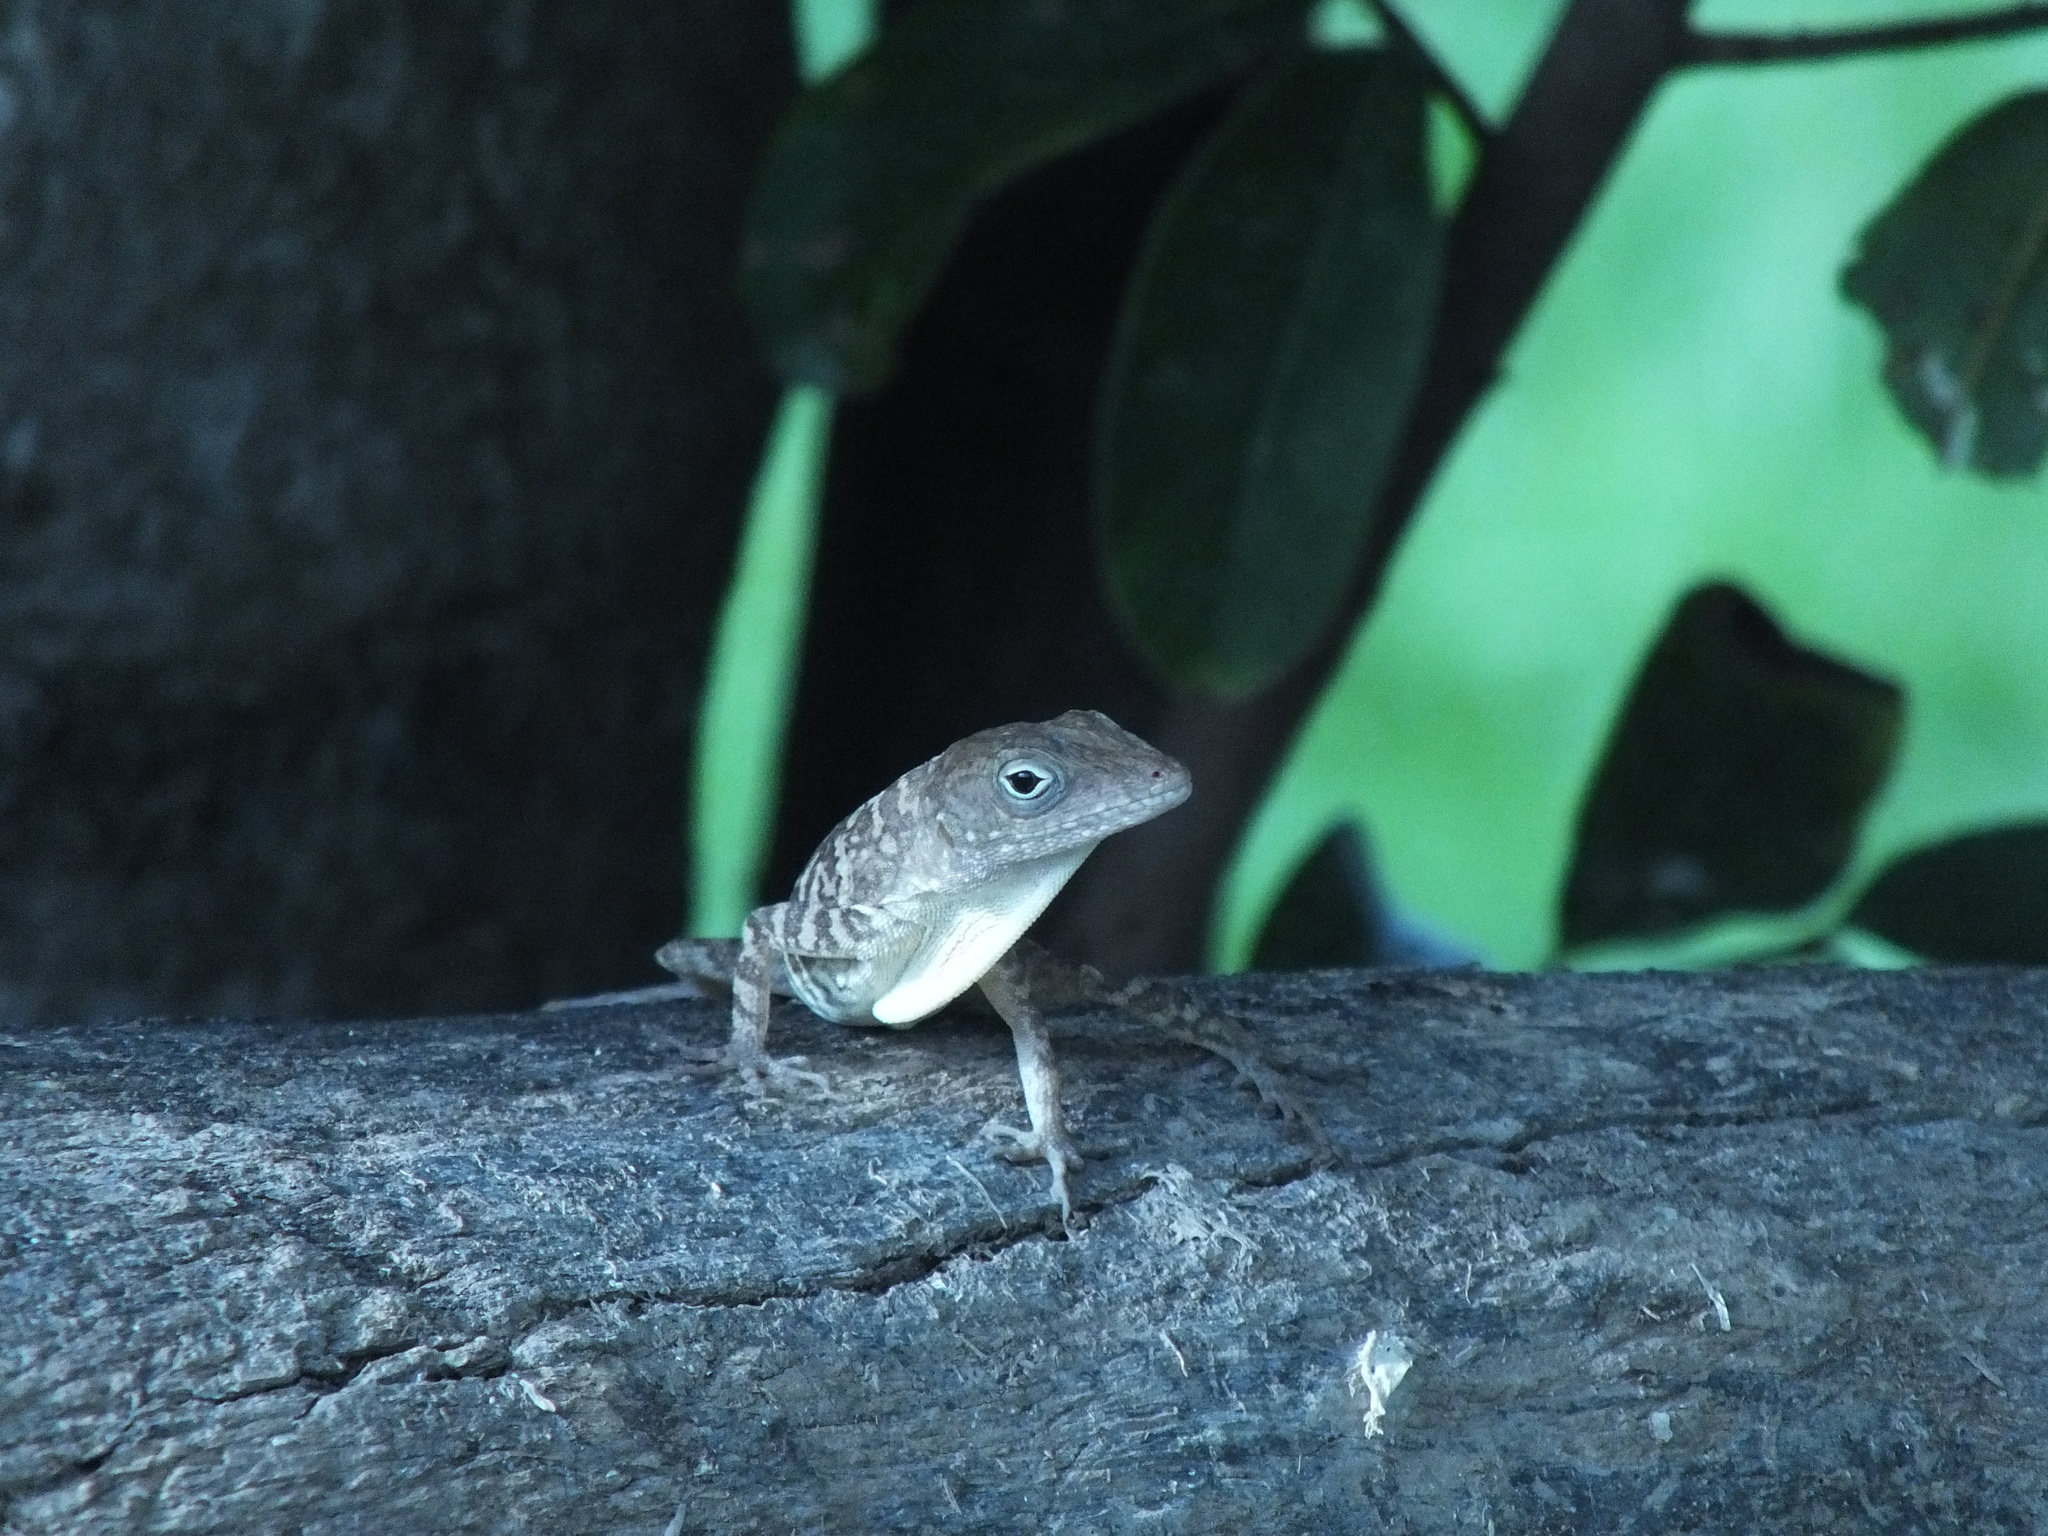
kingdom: Animalia
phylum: Chordata
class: Squamata
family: Dactyloidae
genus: Anolis
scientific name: Anolis lineatopus
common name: Stripefoot anole
